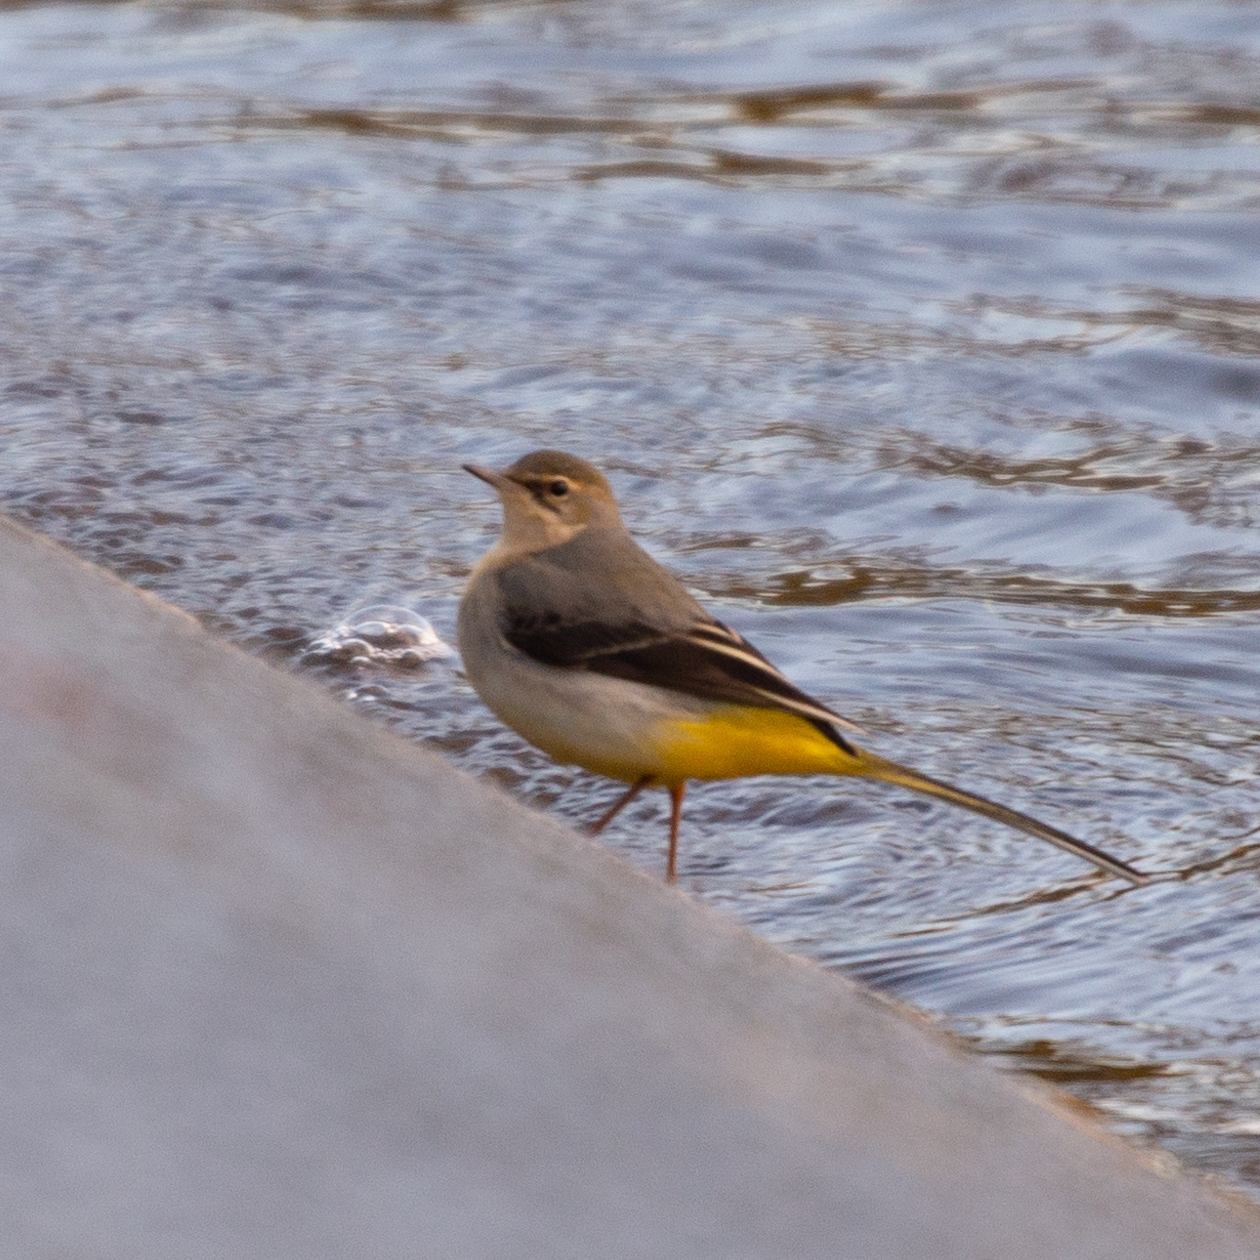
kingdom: Animalia
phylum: Chordata
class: Aves
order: Passeriformes
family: Motacillidae
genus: Motacilla
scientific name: Motacilla cinerea
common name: Grey wagtail
